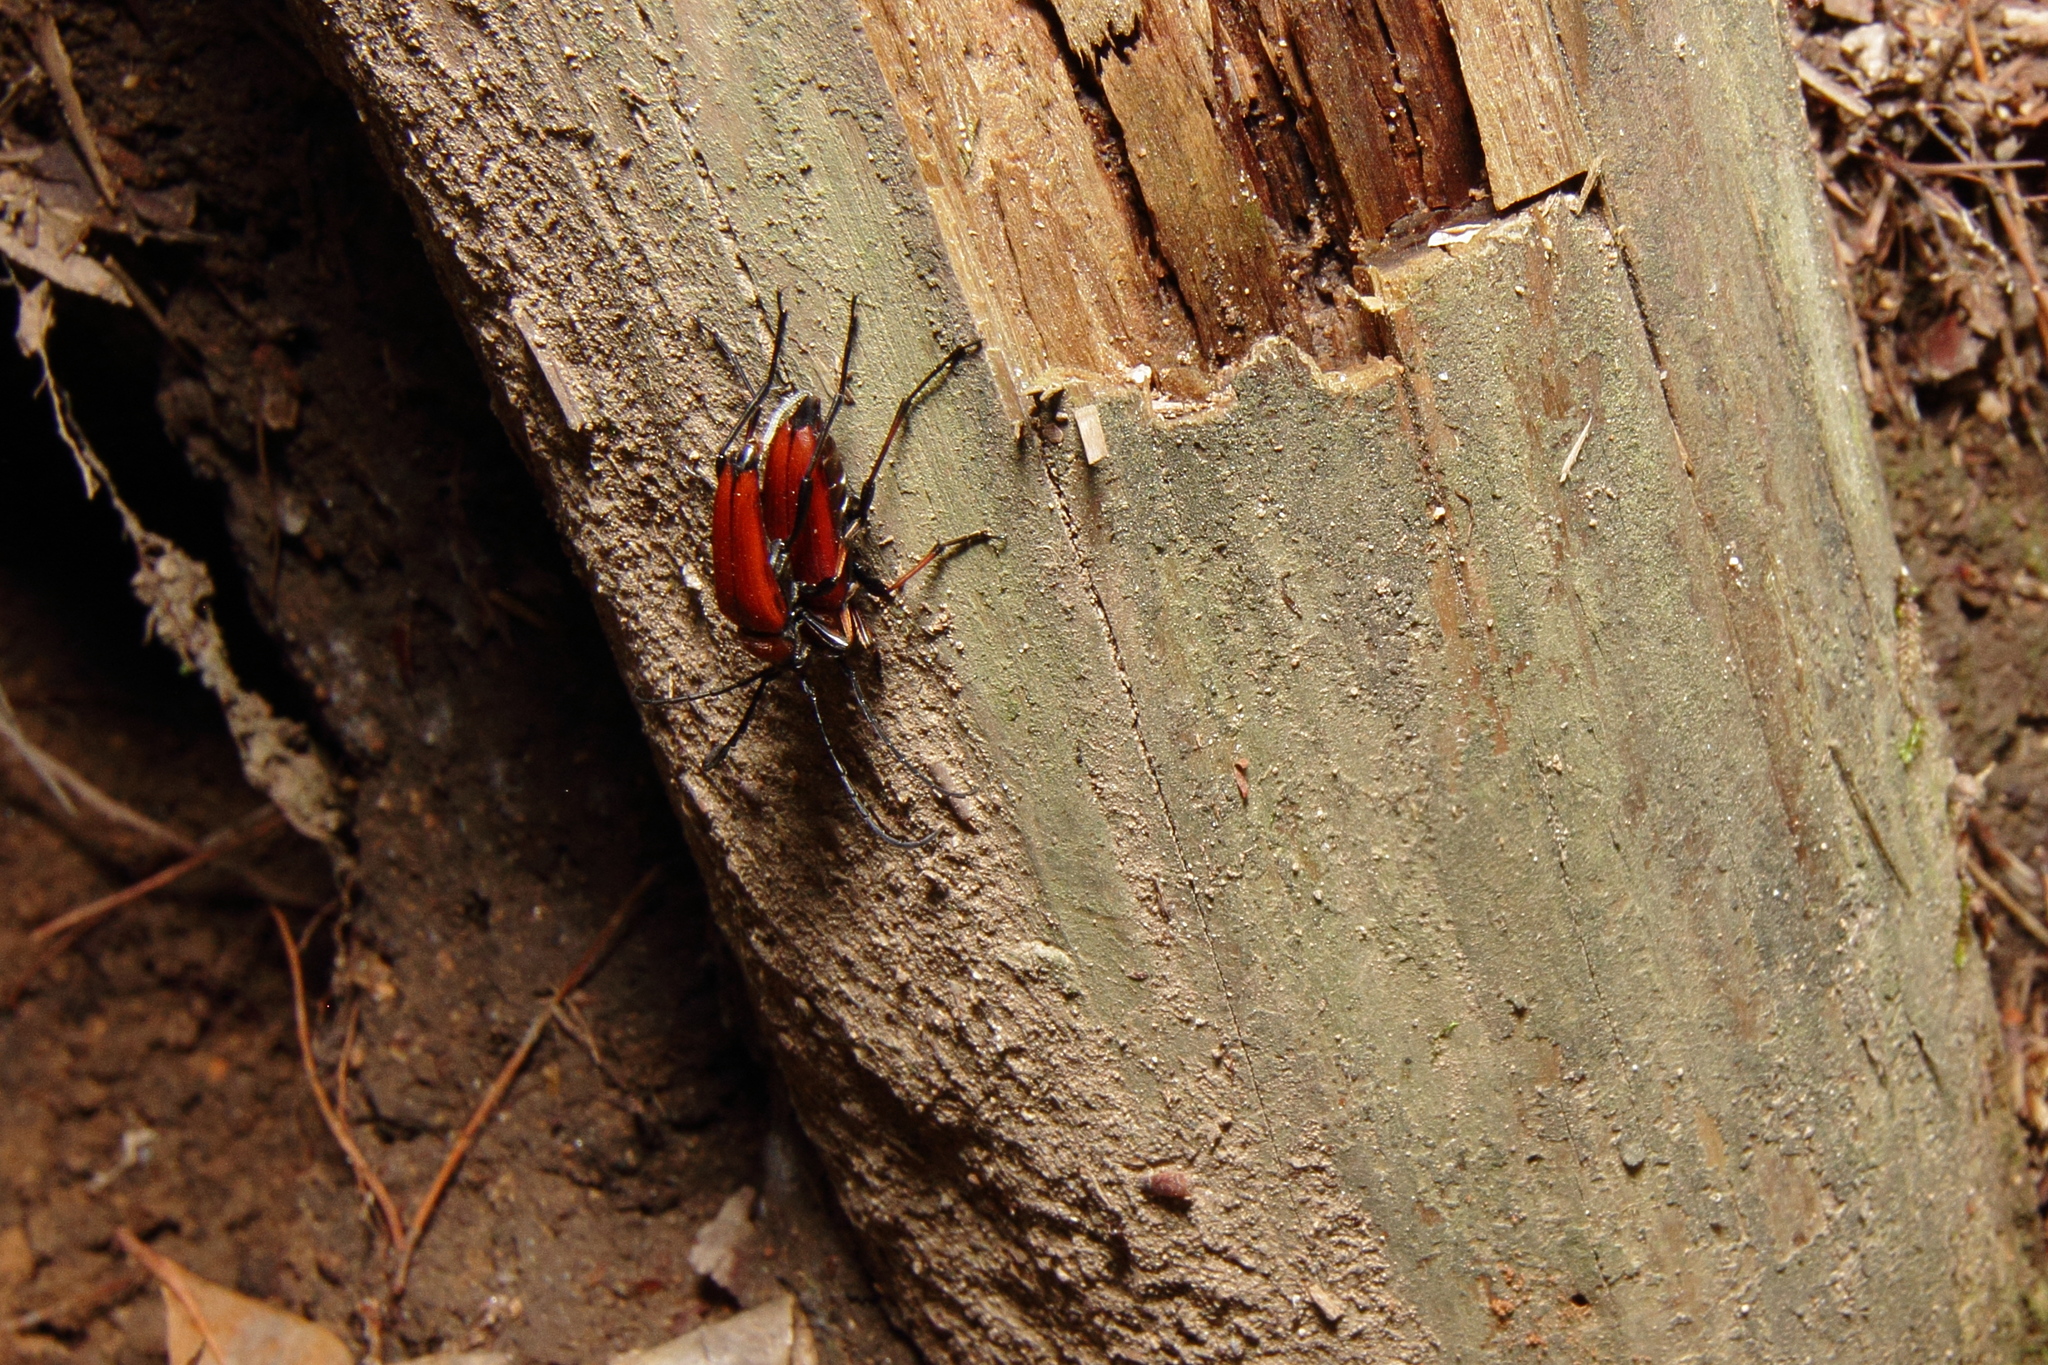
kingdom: Animalia
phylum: Arthropoda
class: Insecta
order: Coleoptera
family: Cerambycidae
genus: Stictoleptura
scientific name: Stictoleptura dichroa
